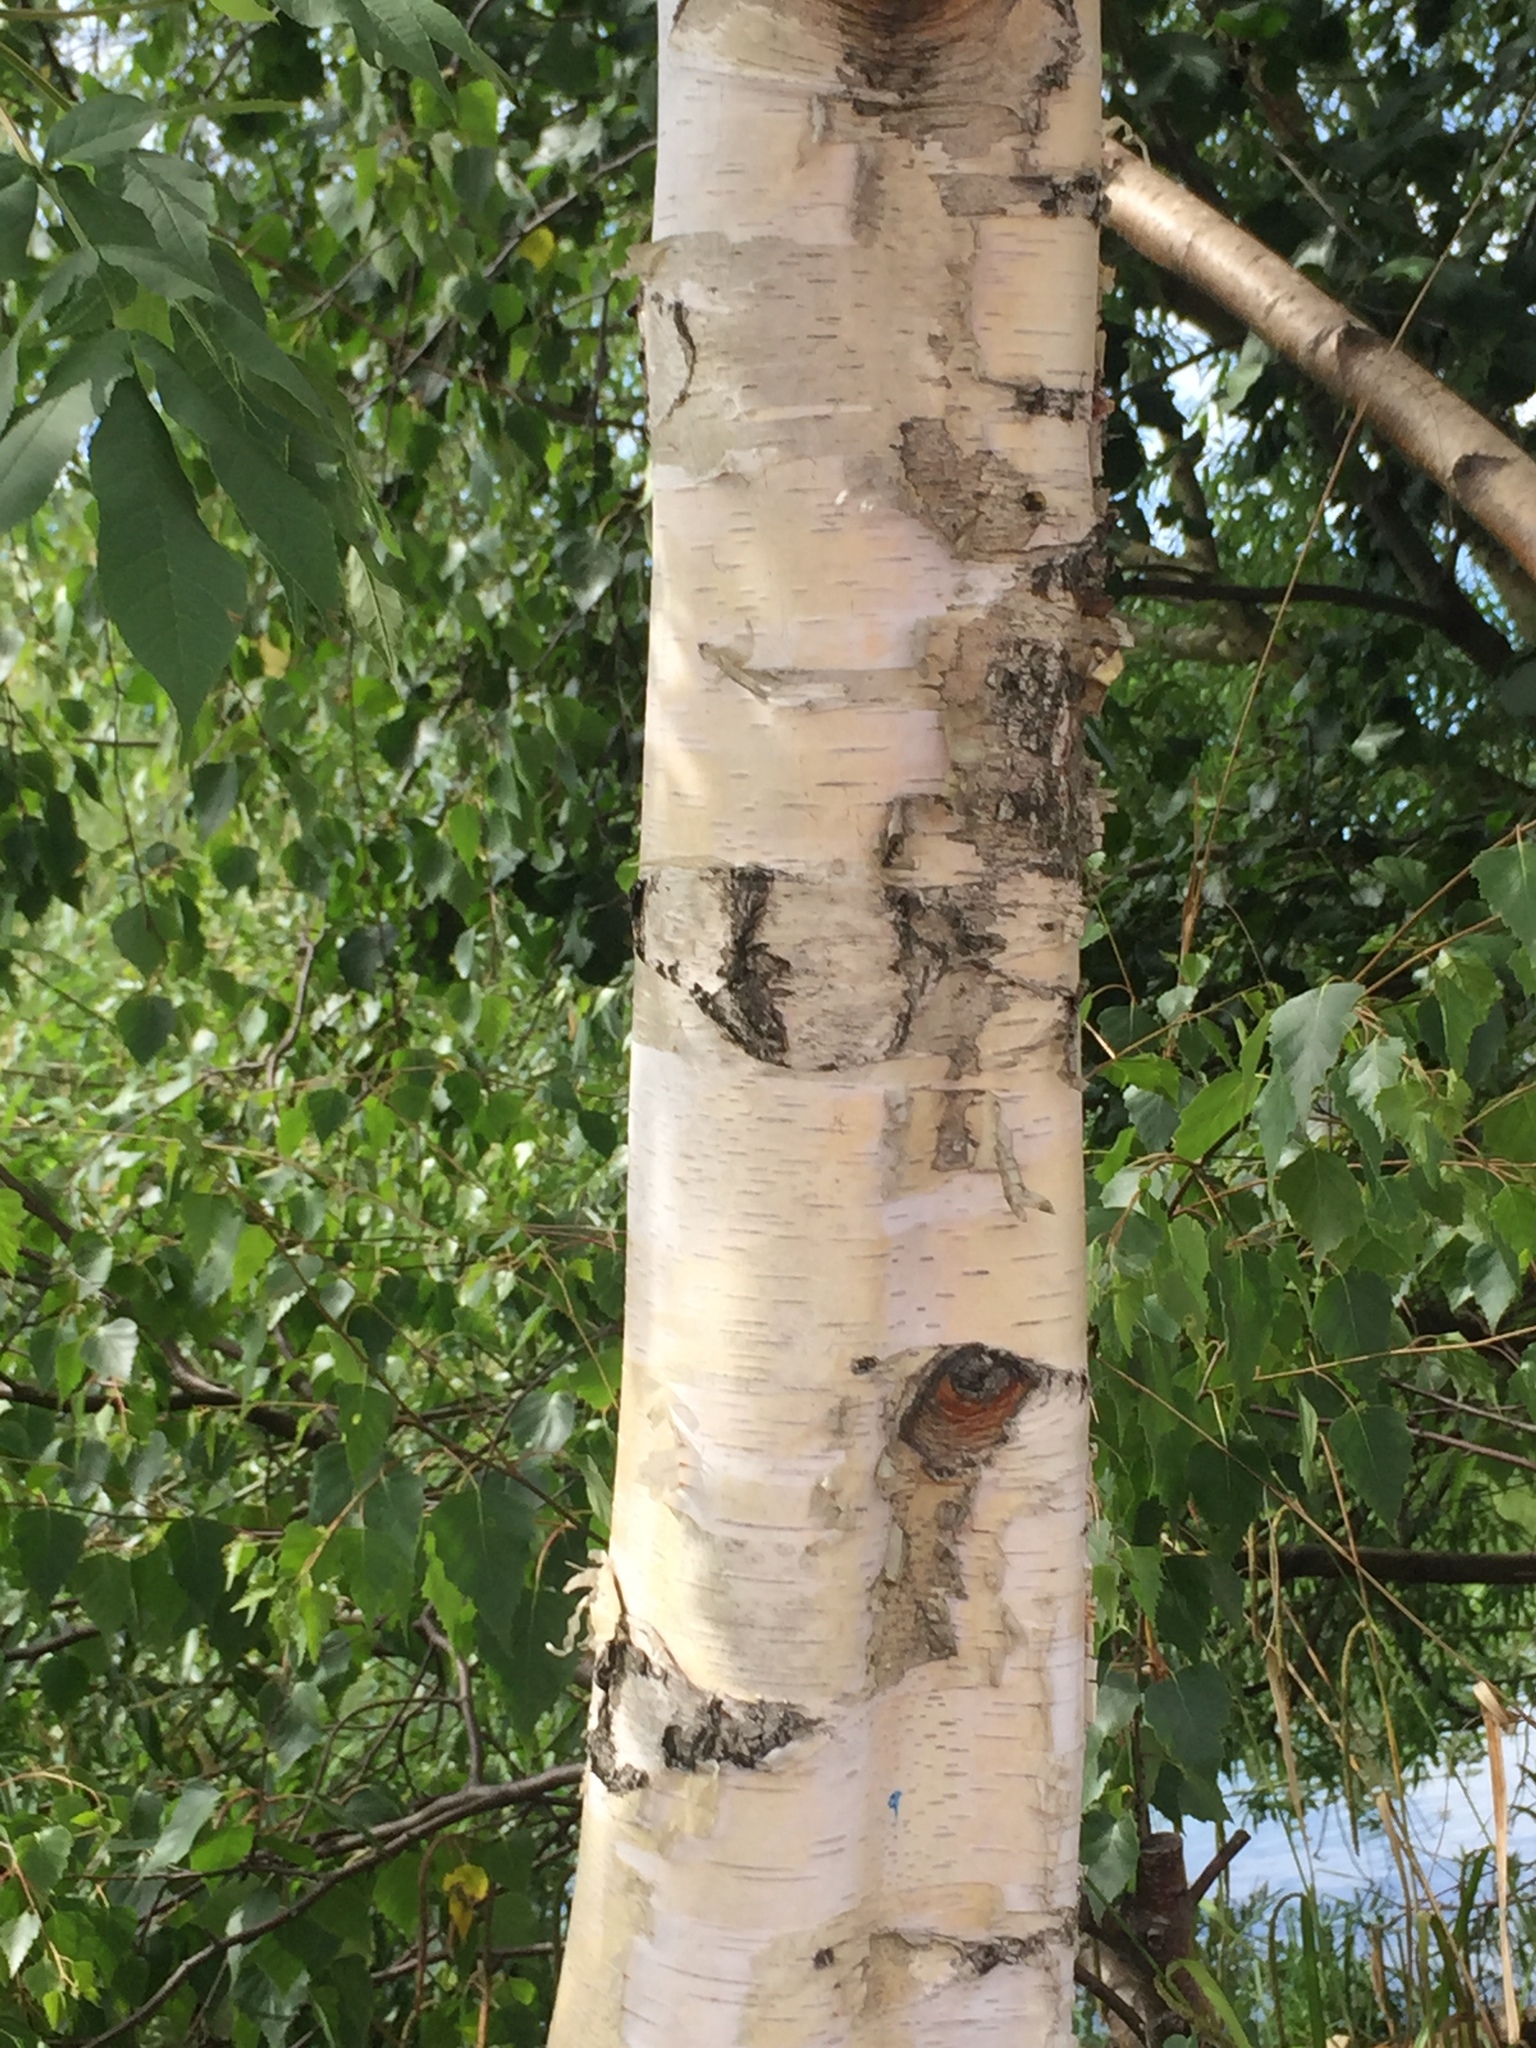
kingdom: Plantae
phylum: Tracheophyta
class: Magnoliopsida
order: Fagales
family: Betulaceae
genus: Betula
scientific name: Betula pendula
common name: Silver birch
